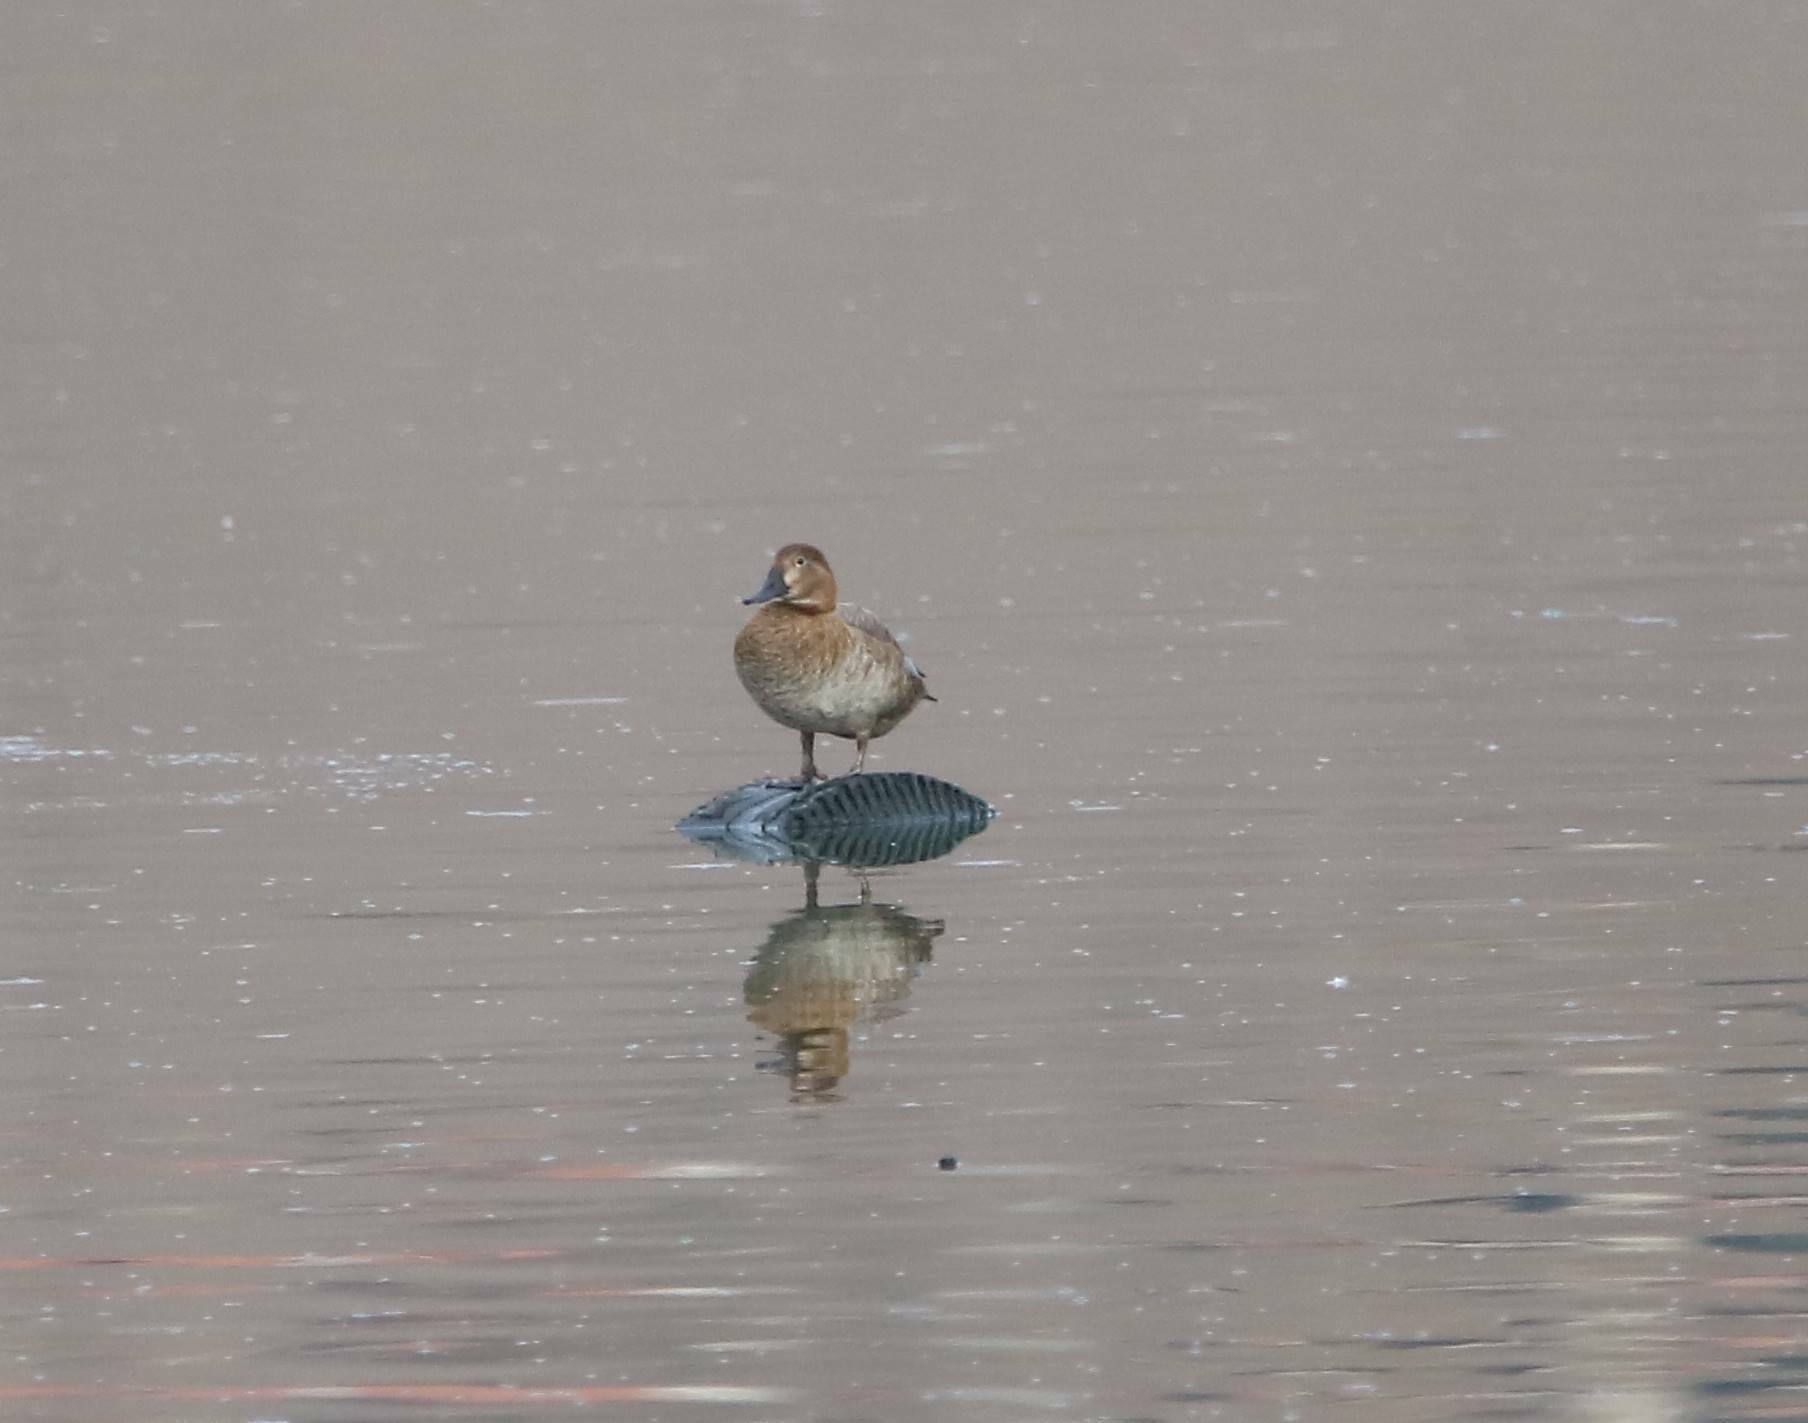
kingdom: Animalia
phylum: Chordata
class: Aves
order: Anseriformes
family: Anatidae
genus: Aythya
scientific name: Aythya ferina
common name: Common pochard
